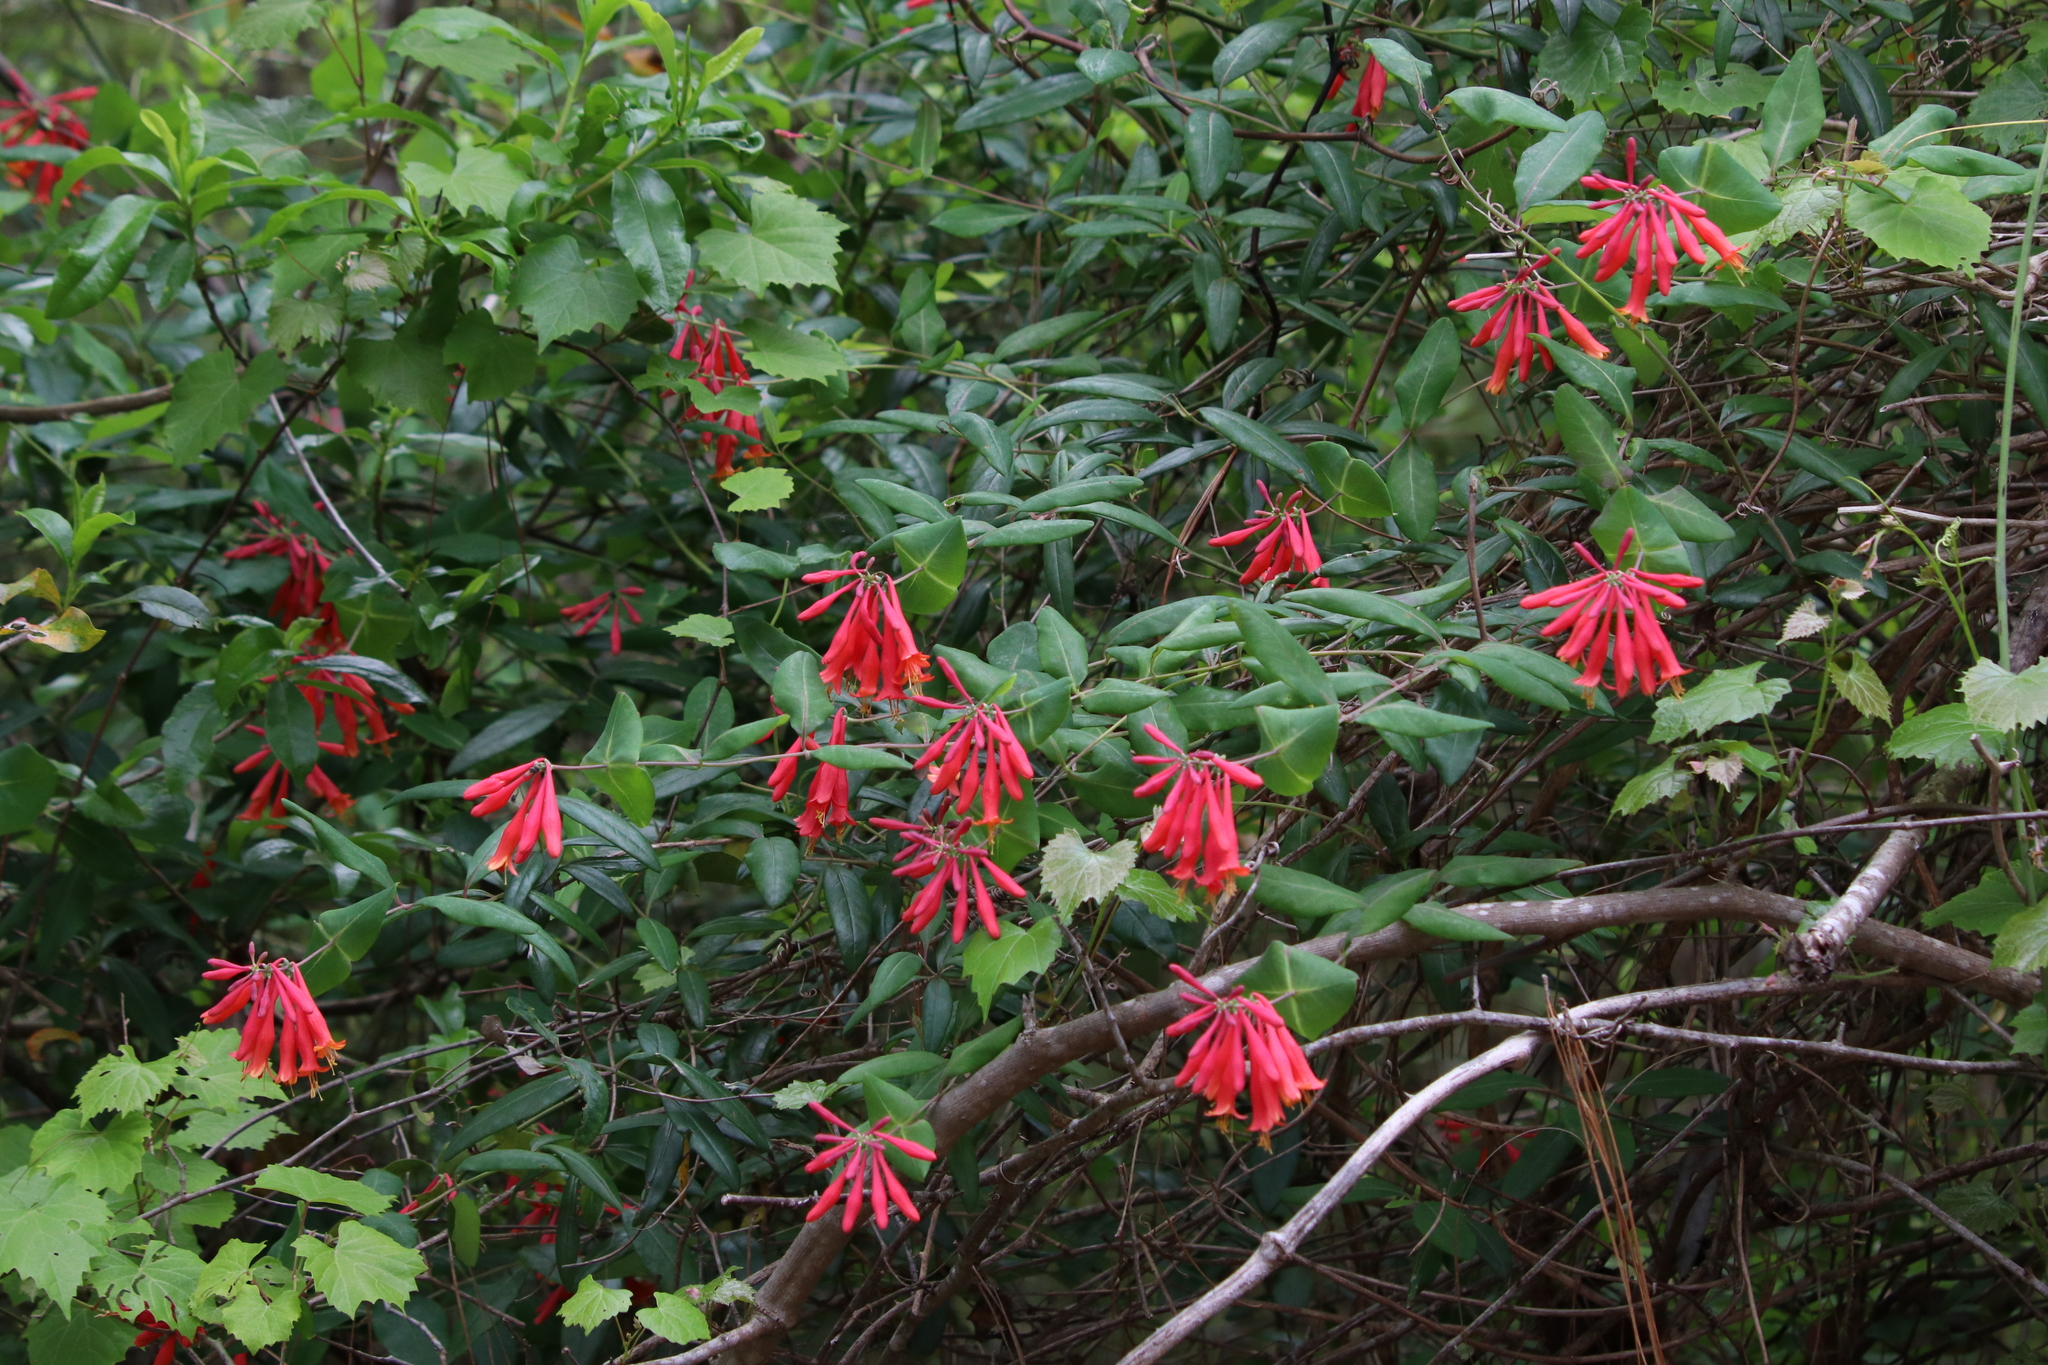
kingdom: Plantae
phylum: Tracheophyta
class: Magnoliopsida
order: Dipsacales
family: Caprifoliaceae
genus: Lonicera
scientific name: Lonicera sempervirens
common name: Coral honeysuckle
